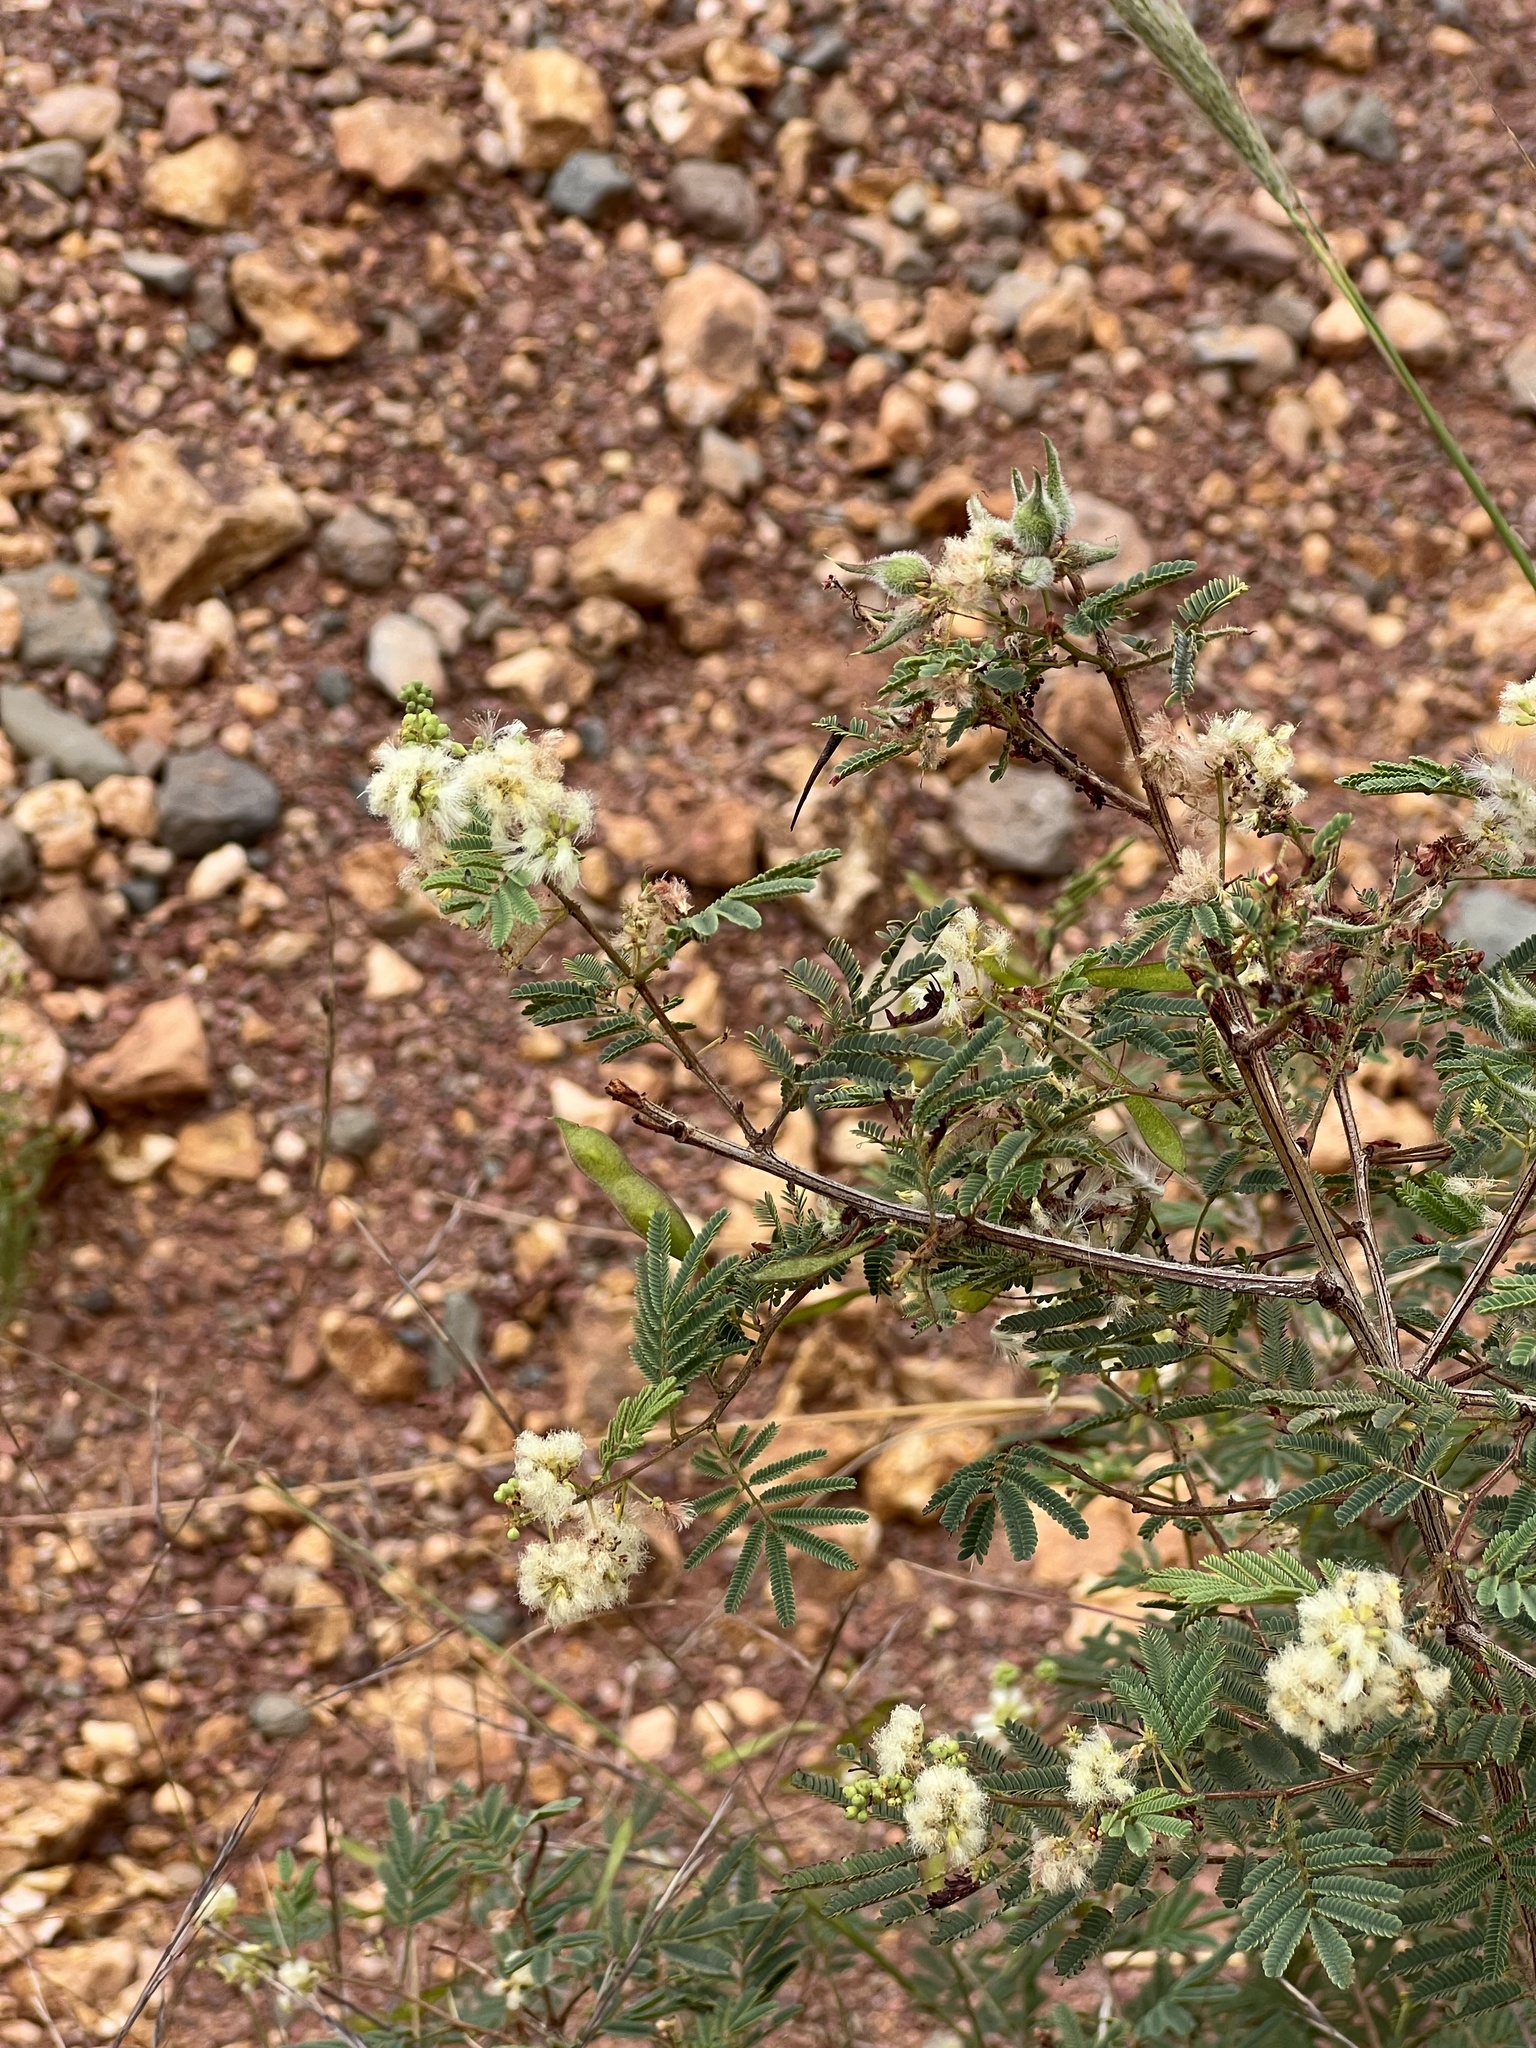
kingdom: Plantae
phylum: Tracheophyta
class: Magnoliopsida
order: Fabales
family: Fabaceae
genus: Acaciella
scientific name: Acaciella angustissima
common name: Prairie acacia
